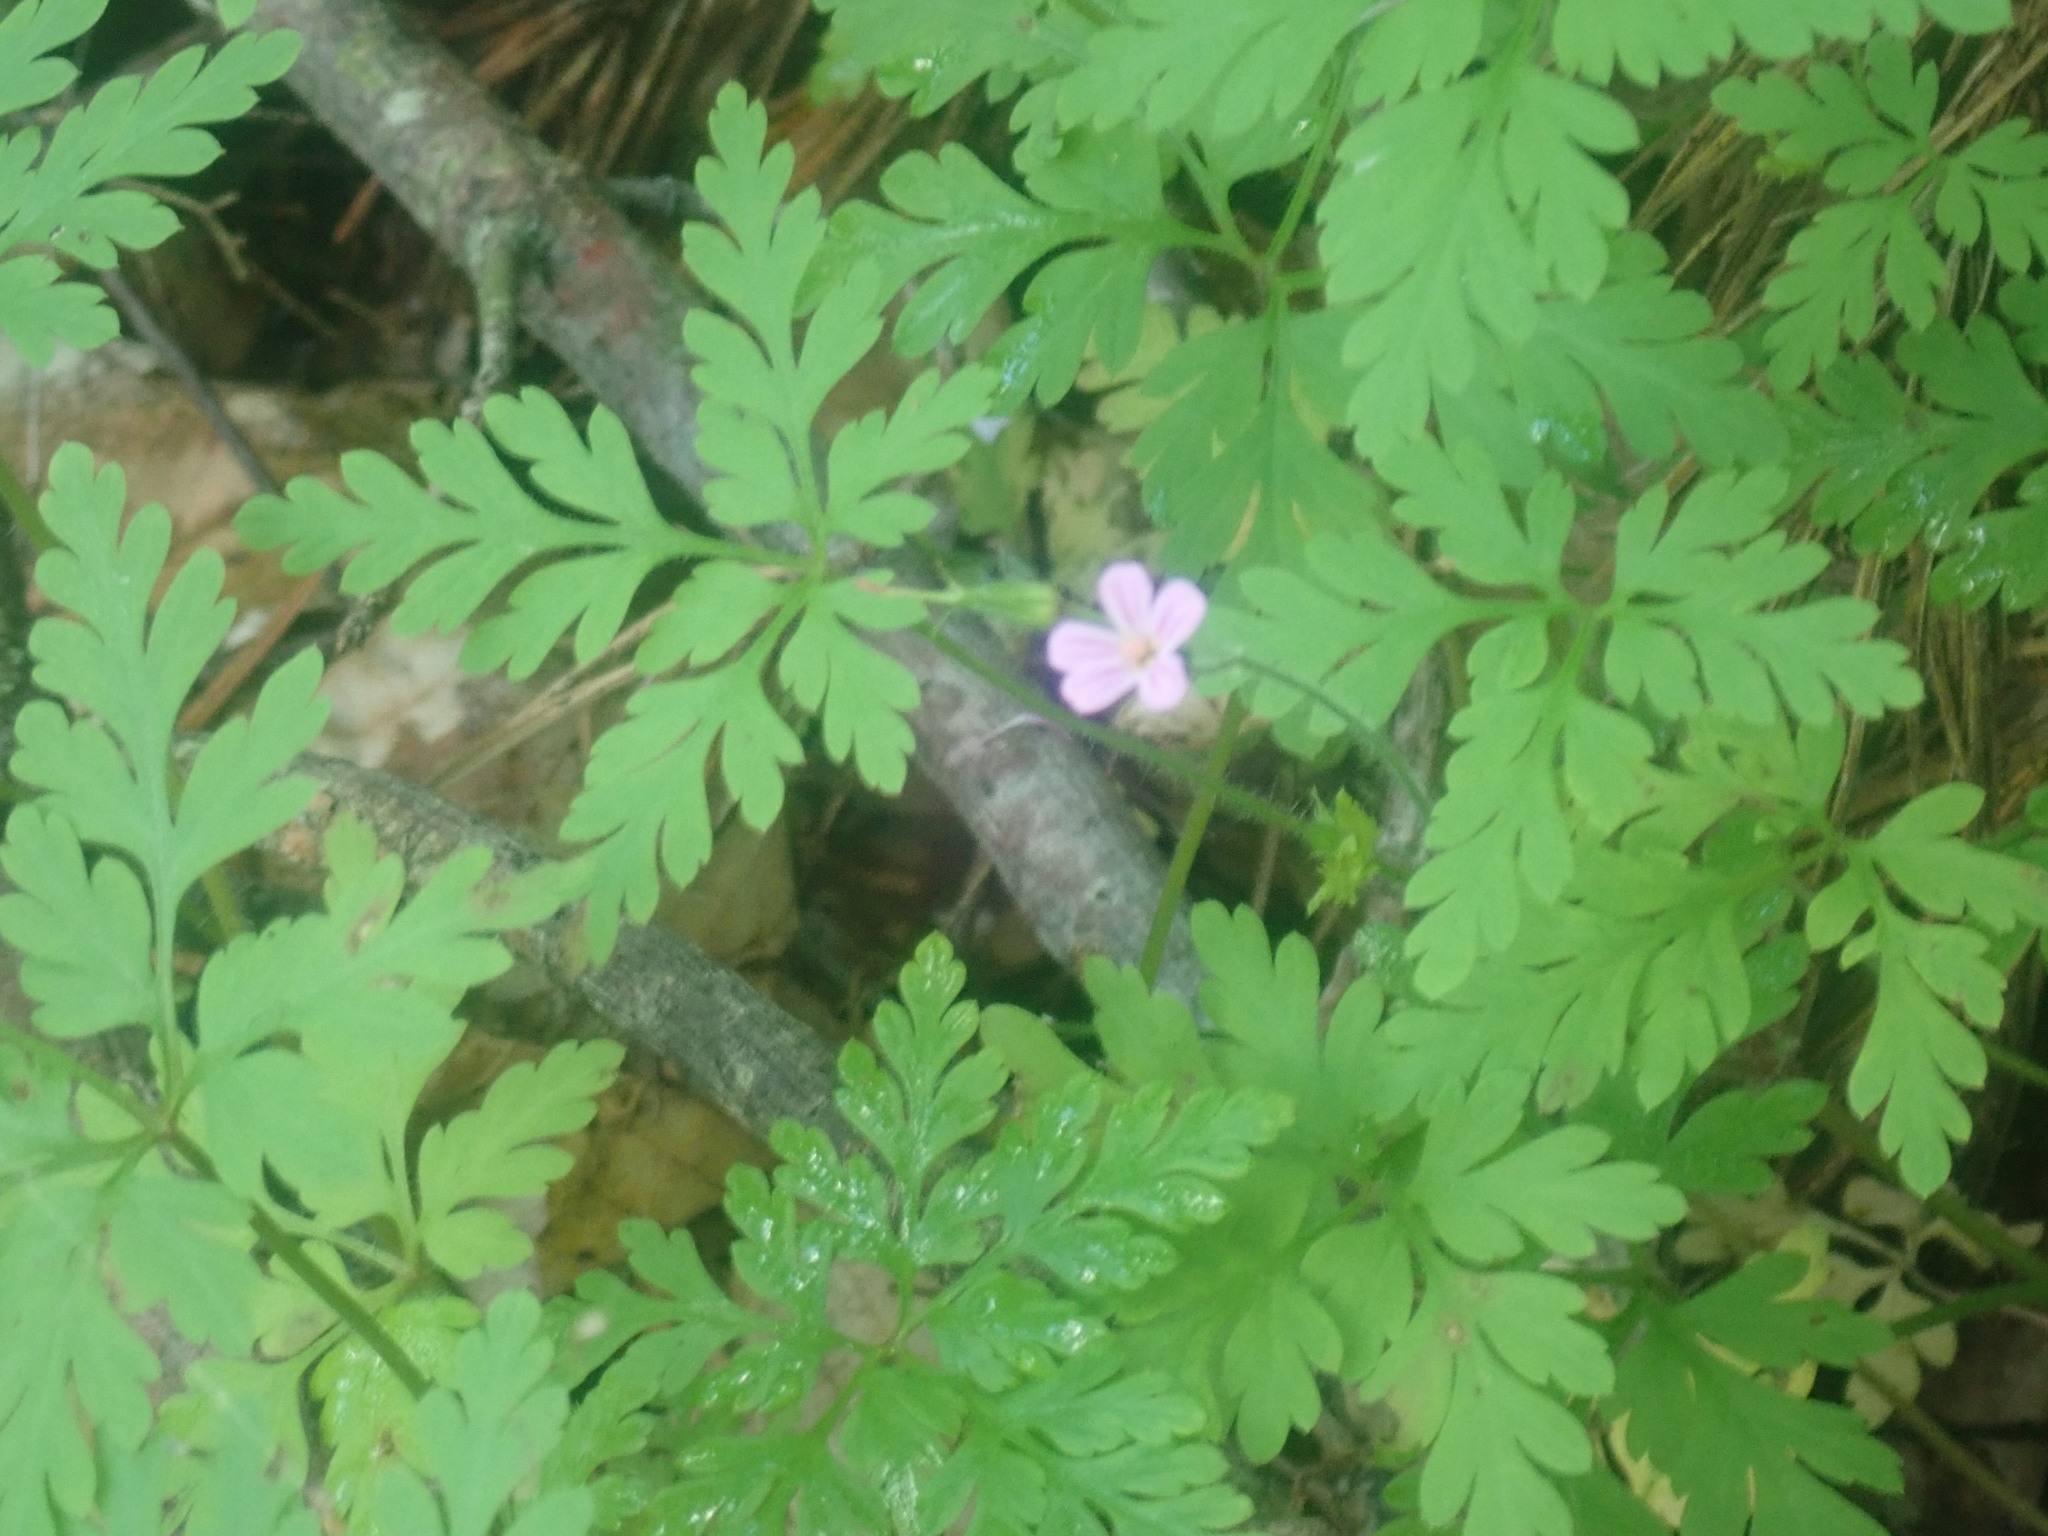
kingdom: Plantae
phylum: Tracheophyta
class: Magnoliopsida
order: Geraniales
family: Geraniaceae
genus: Geranium
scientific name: Geranium robertianum
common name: Herb-robert
